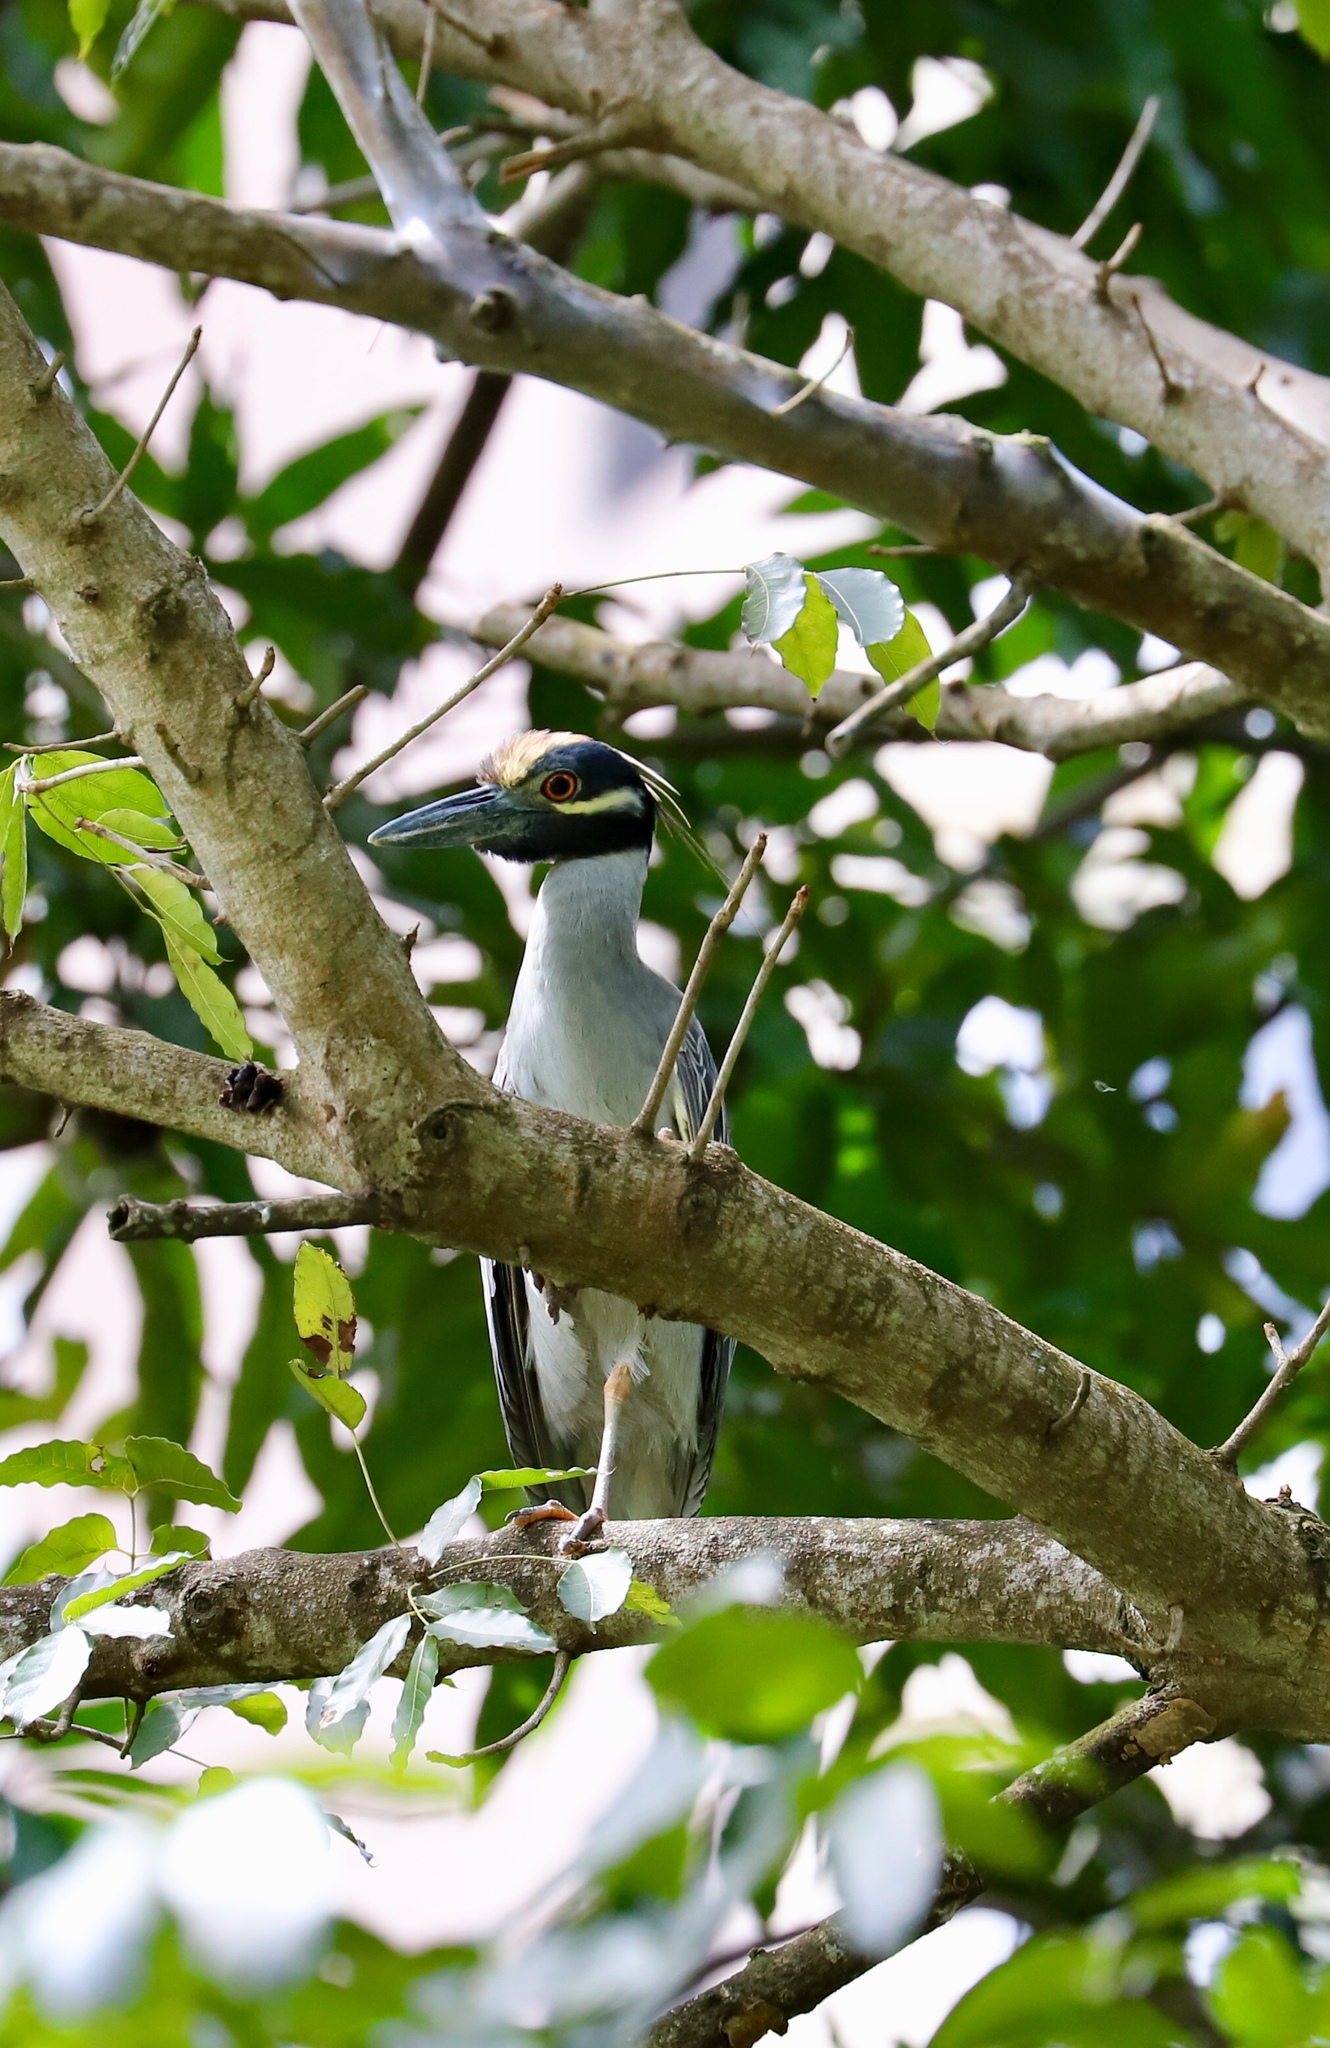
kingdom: Animalia
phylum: Chordata
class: Aves
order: Pelecaniformes
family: Ardeidae
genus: Nyctanassa
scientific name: Nyctanassa violacea
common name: Yellow-crowned night heron
